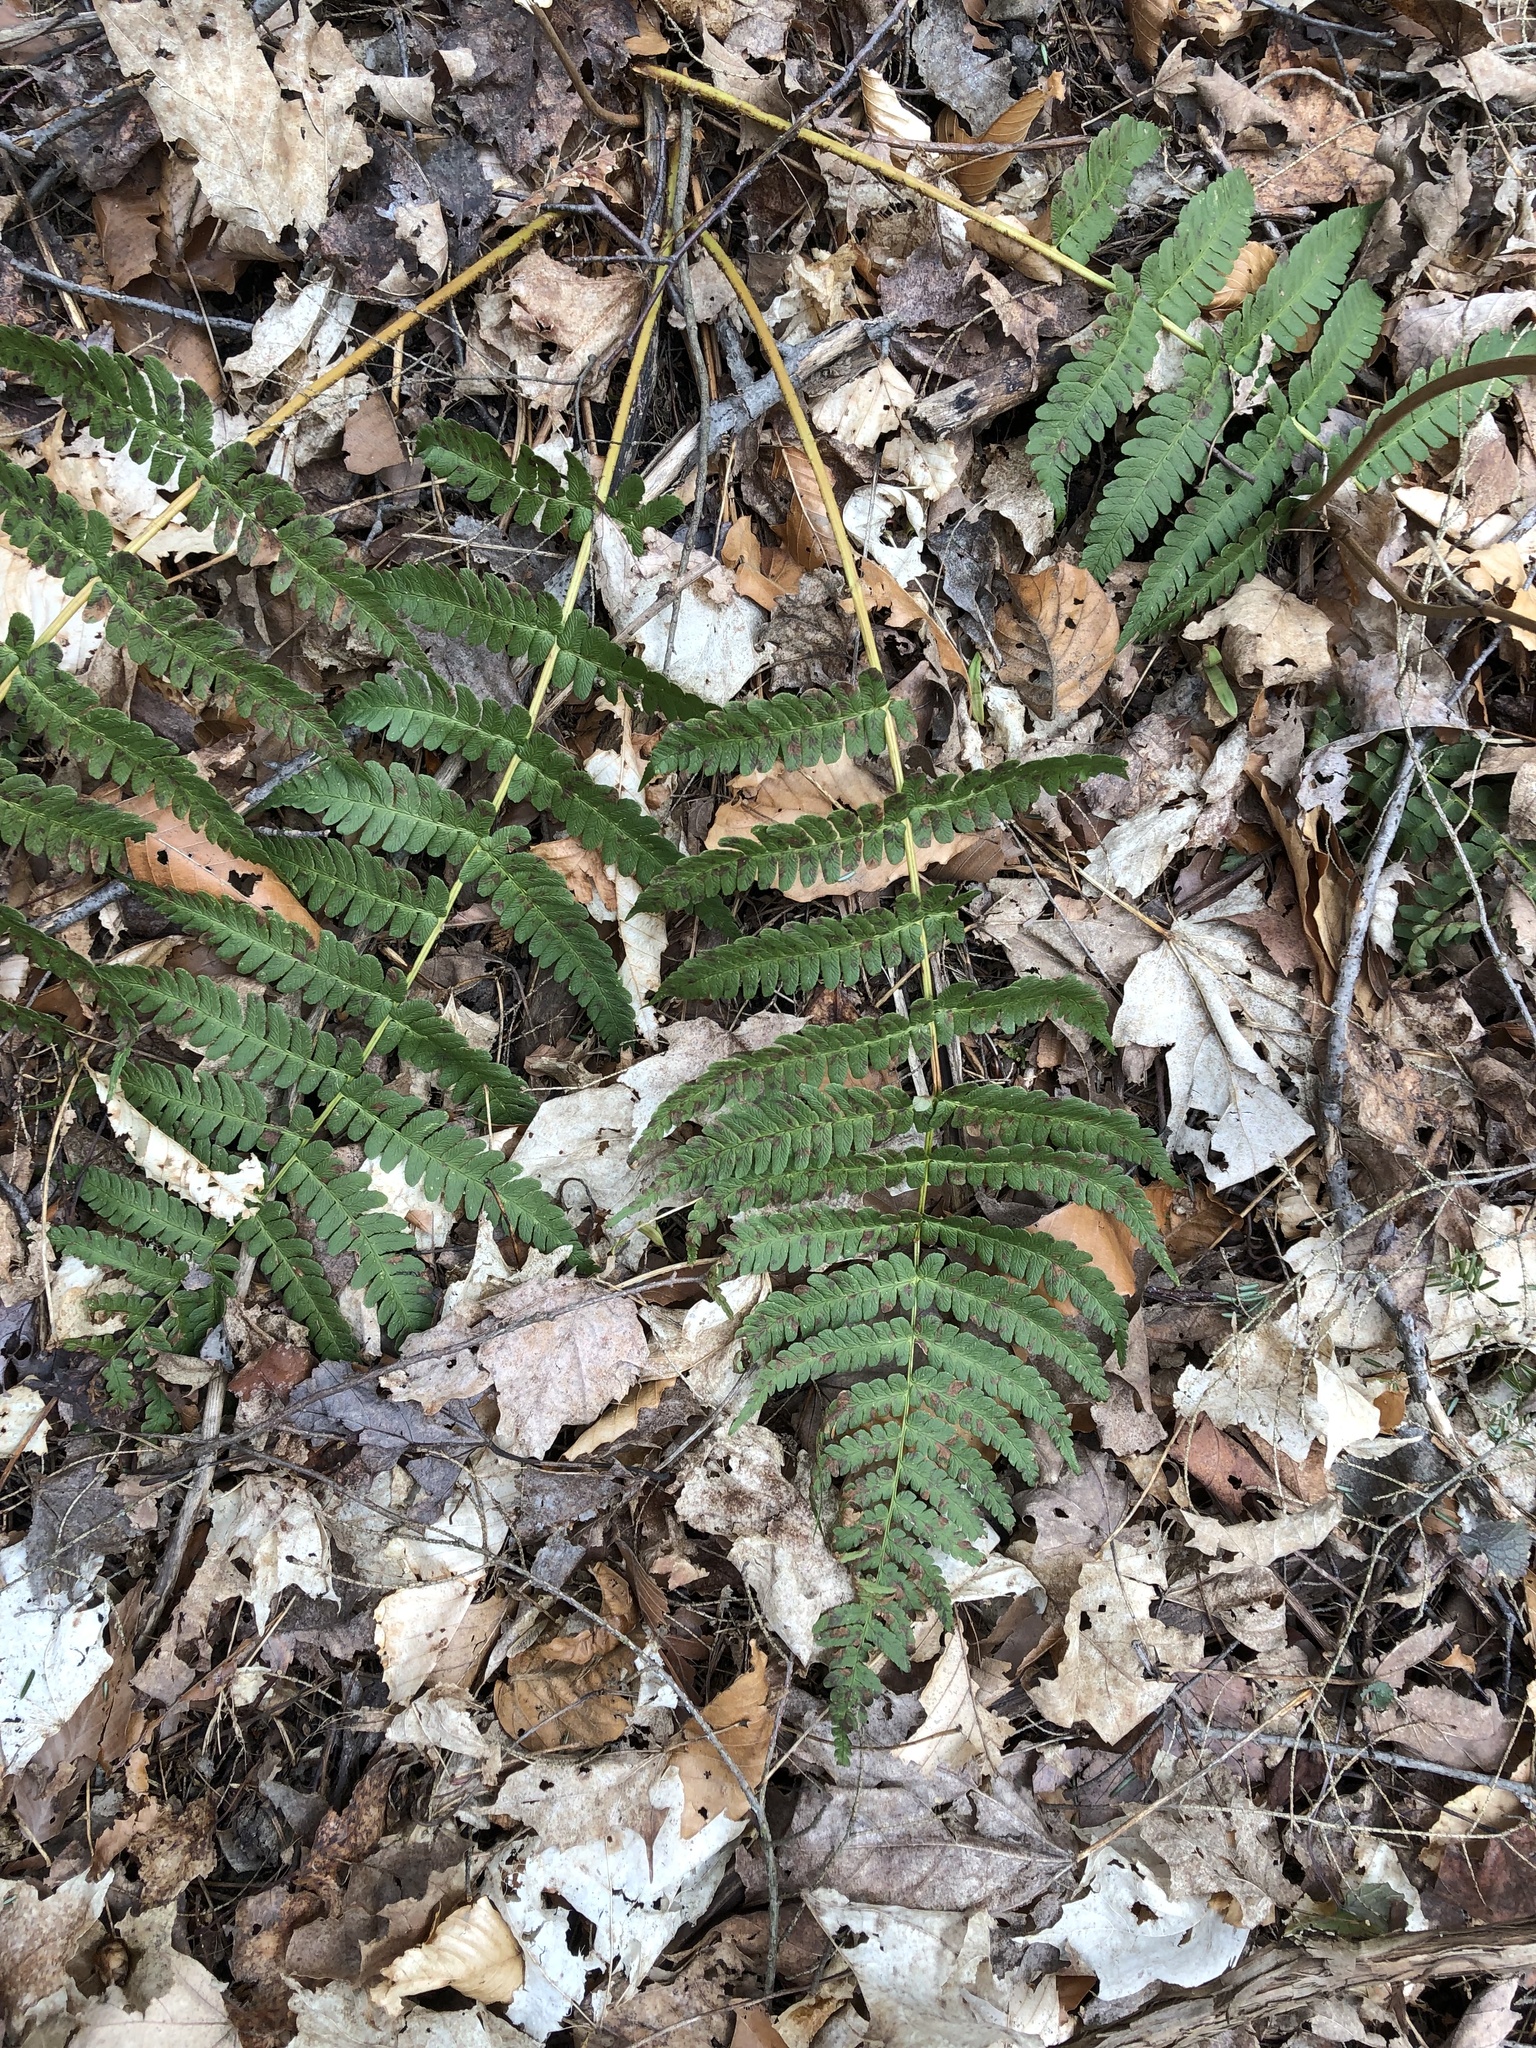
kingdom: Plantae
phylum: Tracheophyta
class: Polypodiopsida
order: Polypodiales
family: Dryopteridaceae
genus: Dryopteris
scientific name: Dryopteris marginalis
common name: Marginal wood fern
